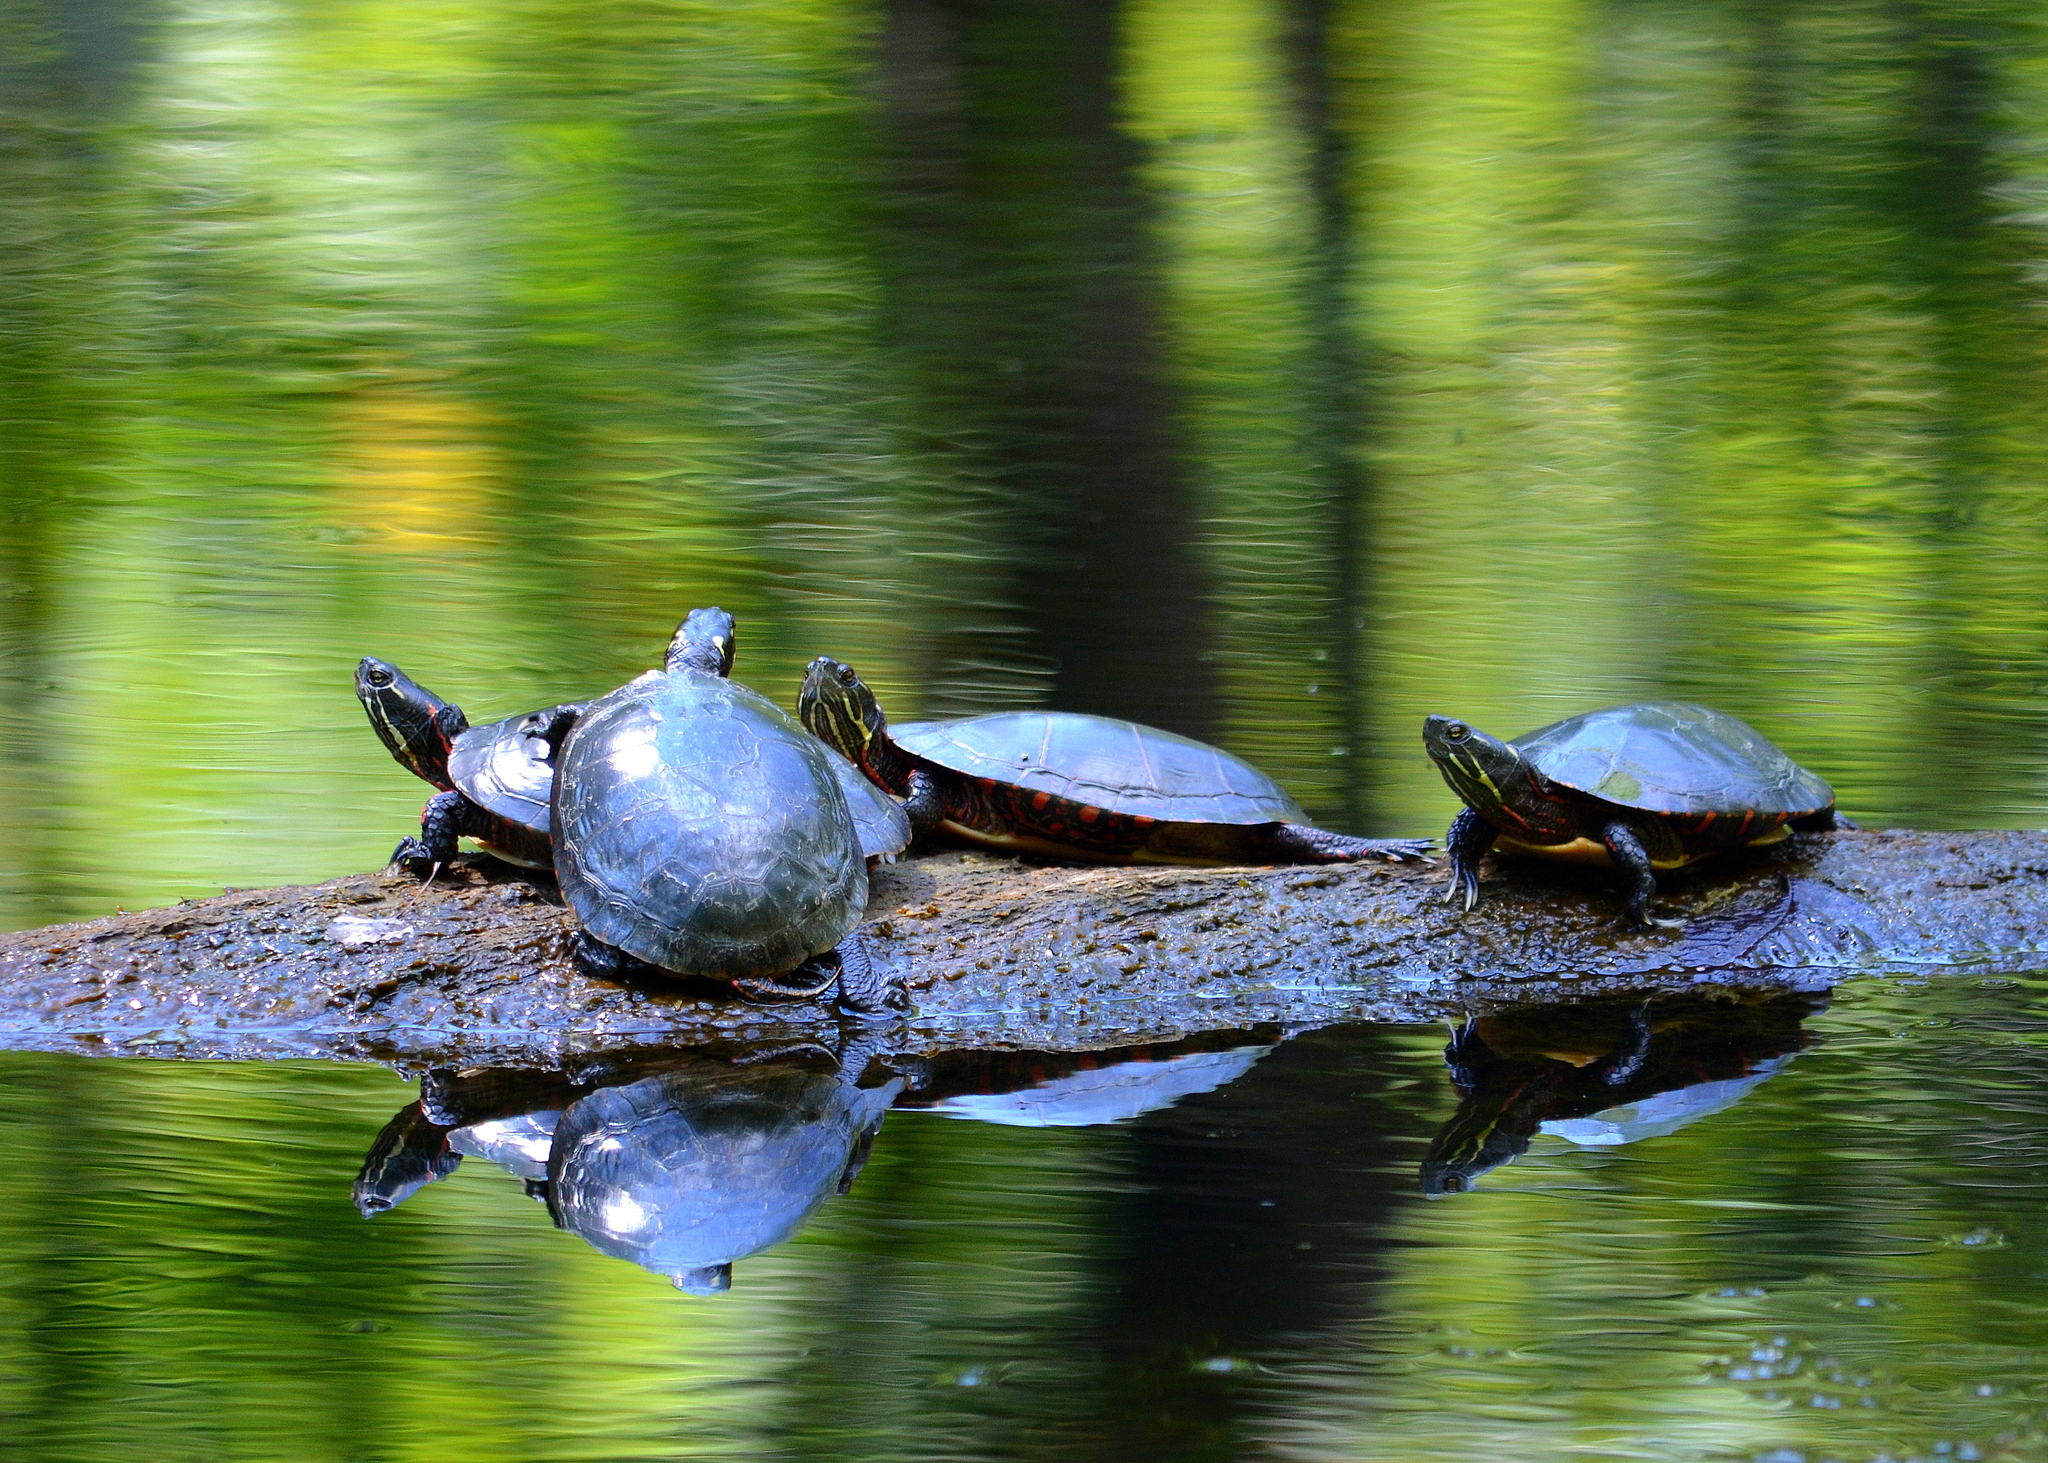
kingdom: Animalia
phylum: Chordata
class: Testudines
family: Emydidae
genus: Chrysemys
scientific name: Chrysemys picta
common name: Painted turtle
